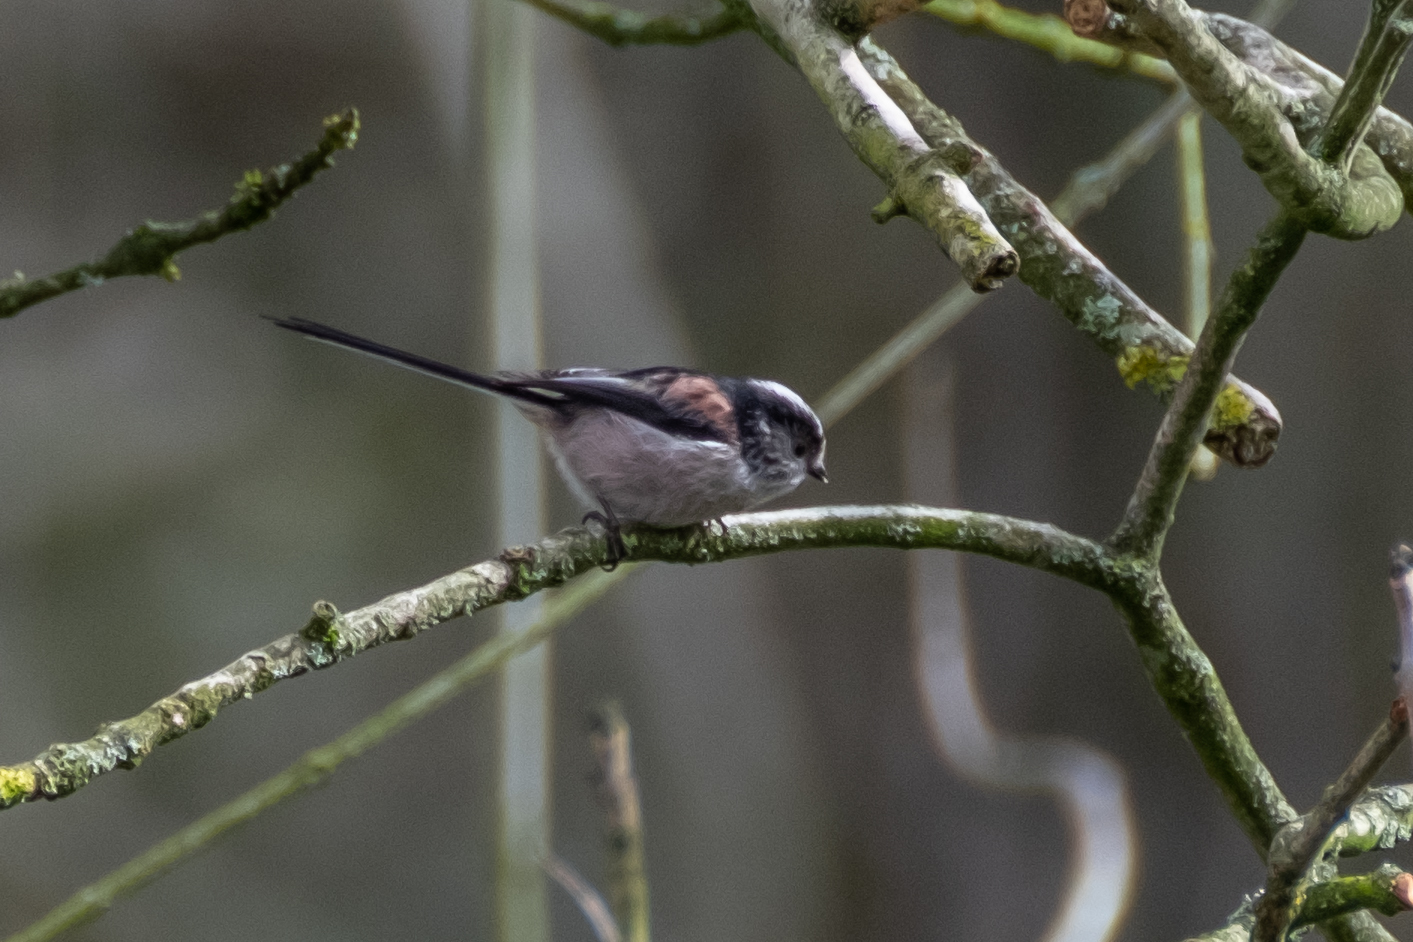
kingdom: Animalia
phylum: Chordata
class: Aves
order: Passeriformes
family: Aegithalidae
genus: Aegithalos
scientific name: Aegithalos caudatus
